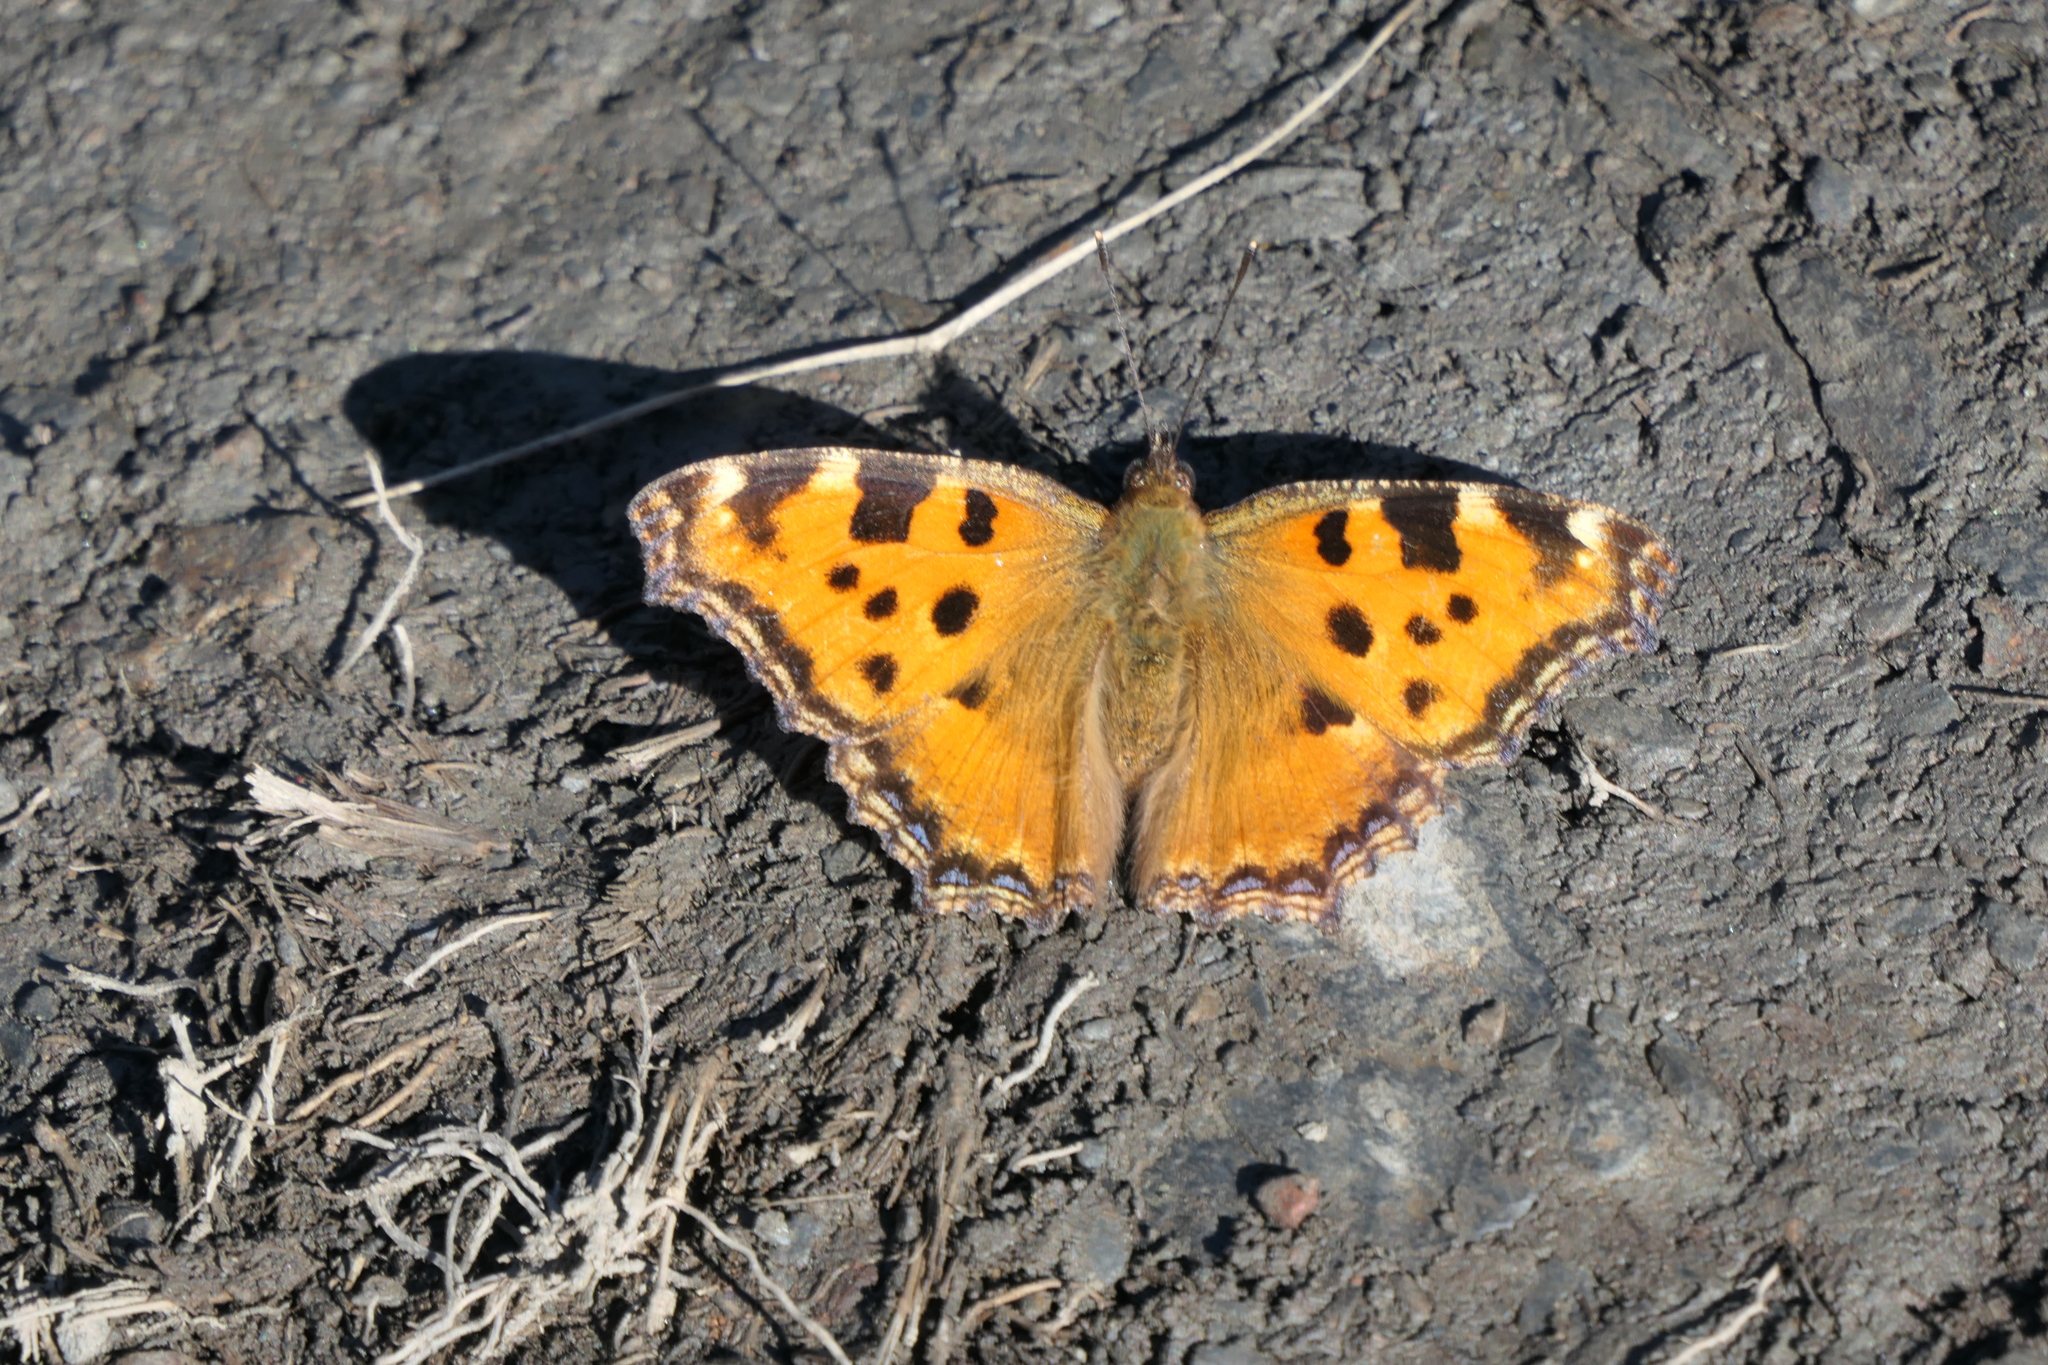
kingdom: Animalia
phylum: Arthropoda
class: Insecta
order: Lepidoptera
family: Nymphalidae
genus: Nymphalis
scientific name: Nymphalis polychloros
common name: Large tortoiseshell
